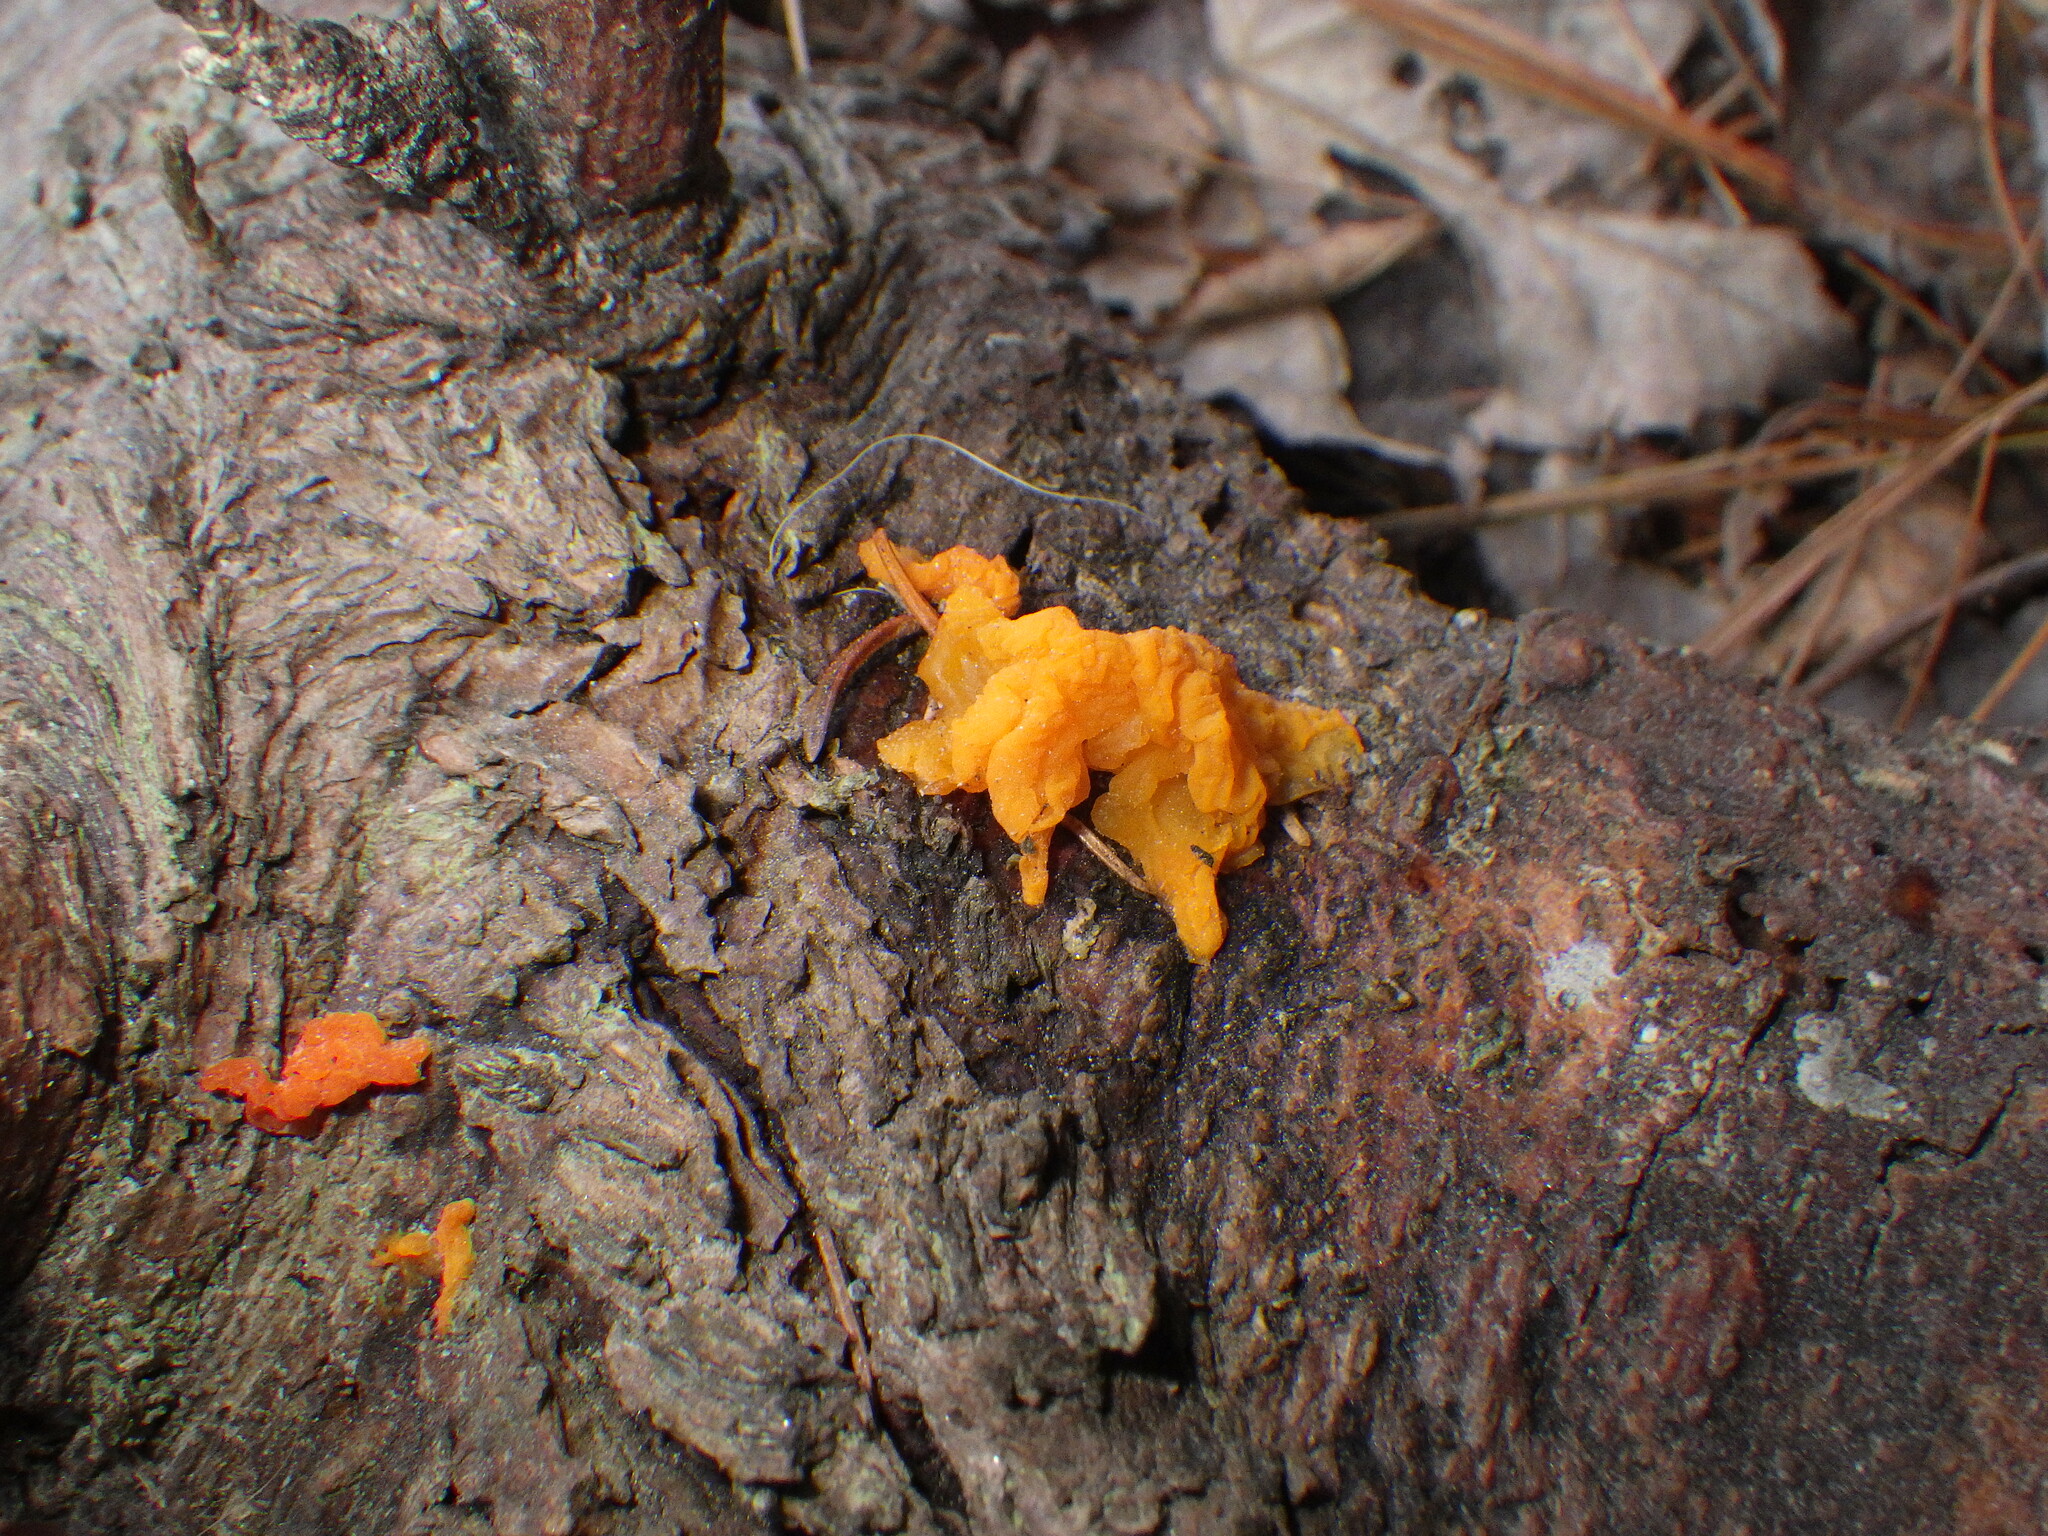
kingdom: Fungi
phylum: Basidiomycota
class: Dacrymycetes
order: Dacrymycetales
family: Dacrymycetaceae
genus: Dacrymyces
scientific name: Dacrymyces chrysospermus
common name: Orange jelly spot
